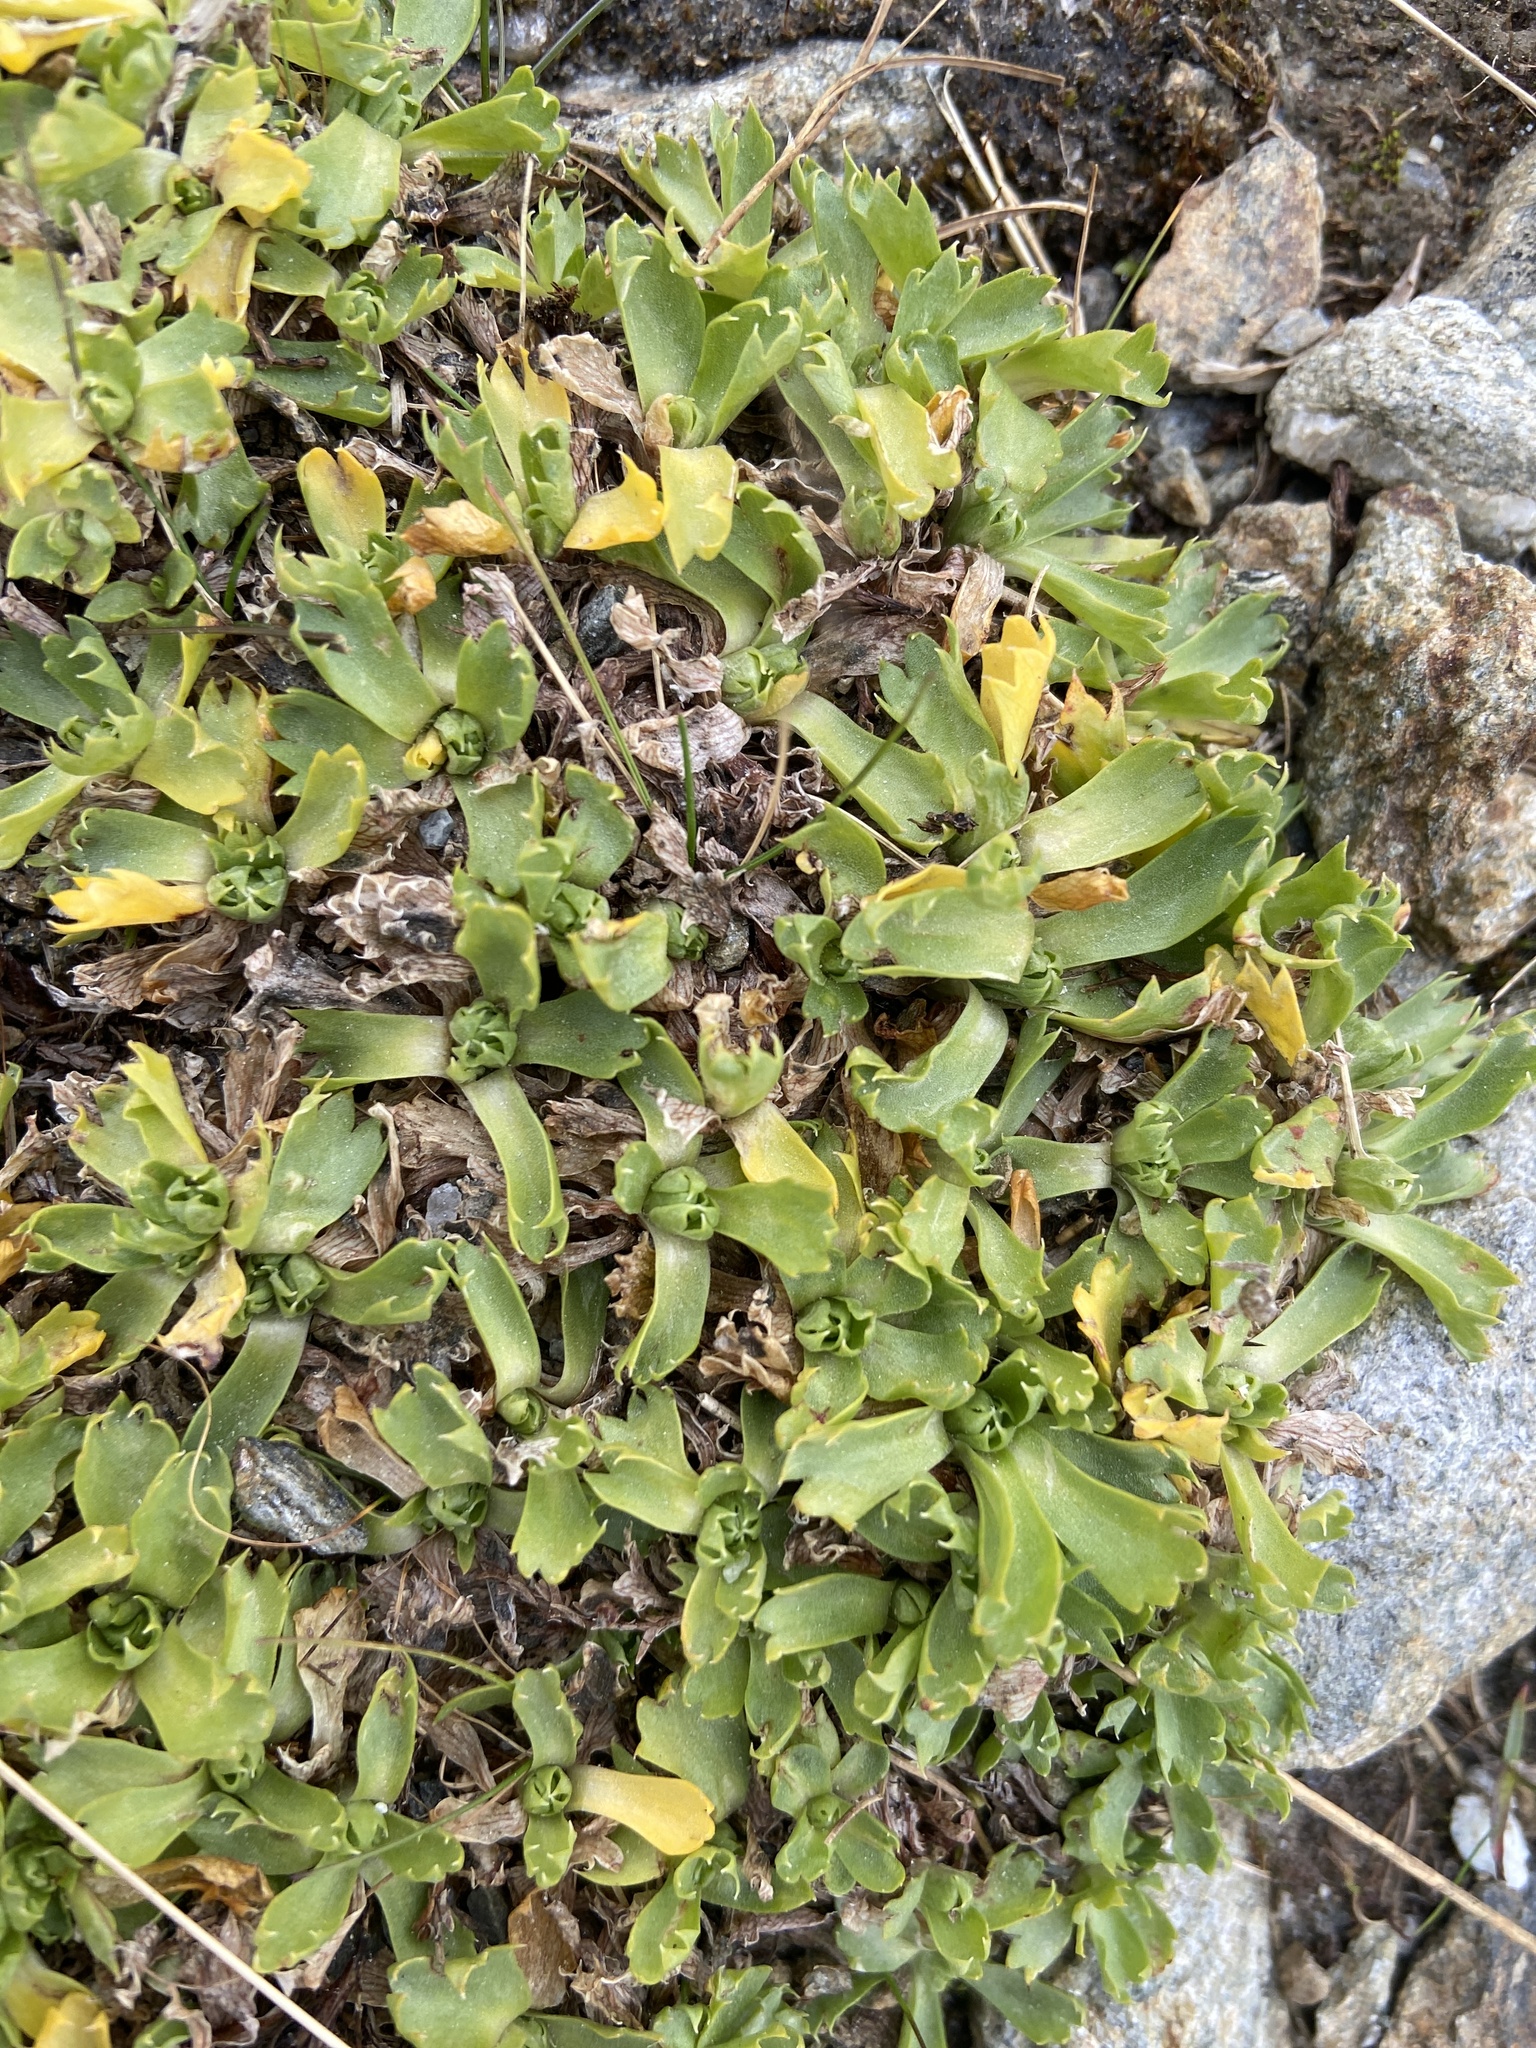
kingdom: Plantae
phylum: Tracheophyta
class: Magnoliopsida
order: Ericales
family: Primulaceae
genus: Primula
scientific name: Primula minima
